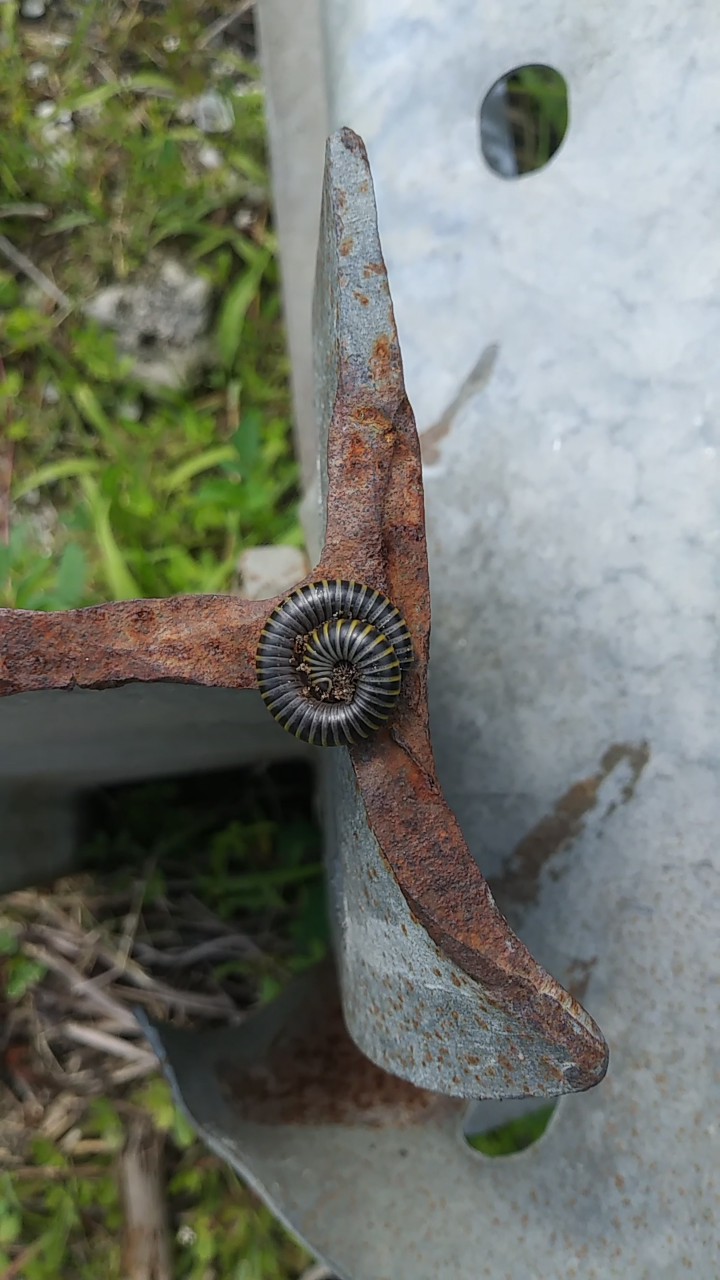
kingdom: Animalia
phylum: Arthropoda
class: Diplopoda
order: Spirobolida
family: Rhinocricidae
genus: Anadenobolus
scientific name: Anadenobolus monilicornis
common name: Caribbean millipede
